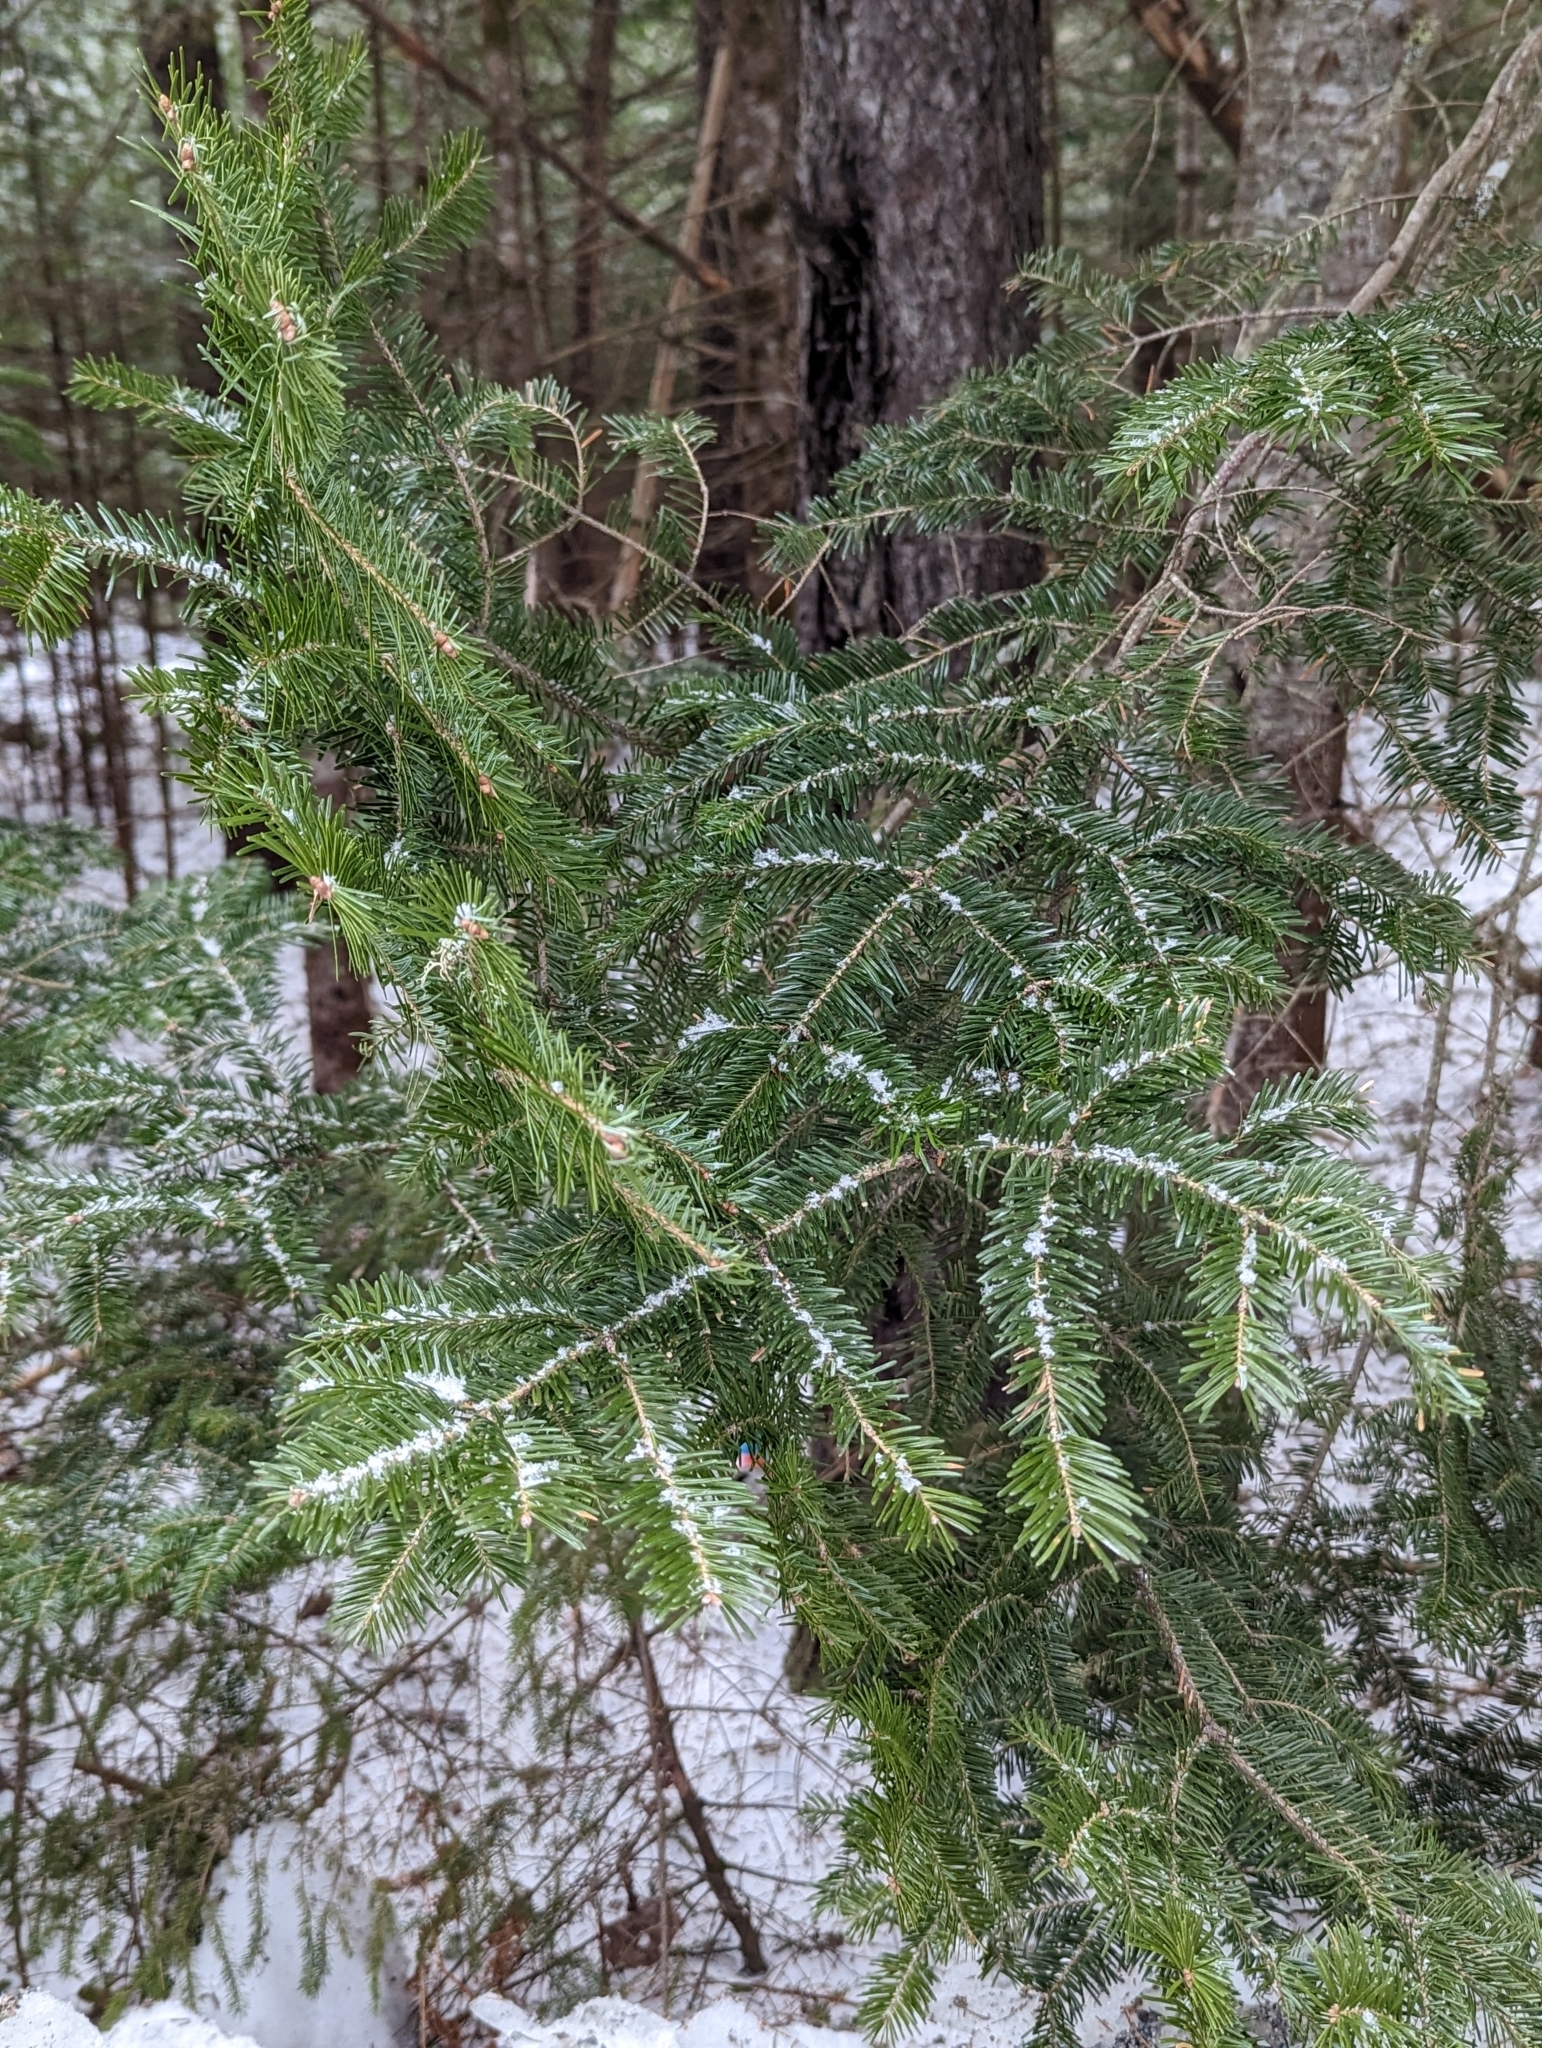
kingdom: Plantae
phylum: Tracheophyta
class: Pinopsida
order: Pinales
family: Pinaceae
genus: Abies
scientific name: Abies balsamea
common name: Balsam fir
